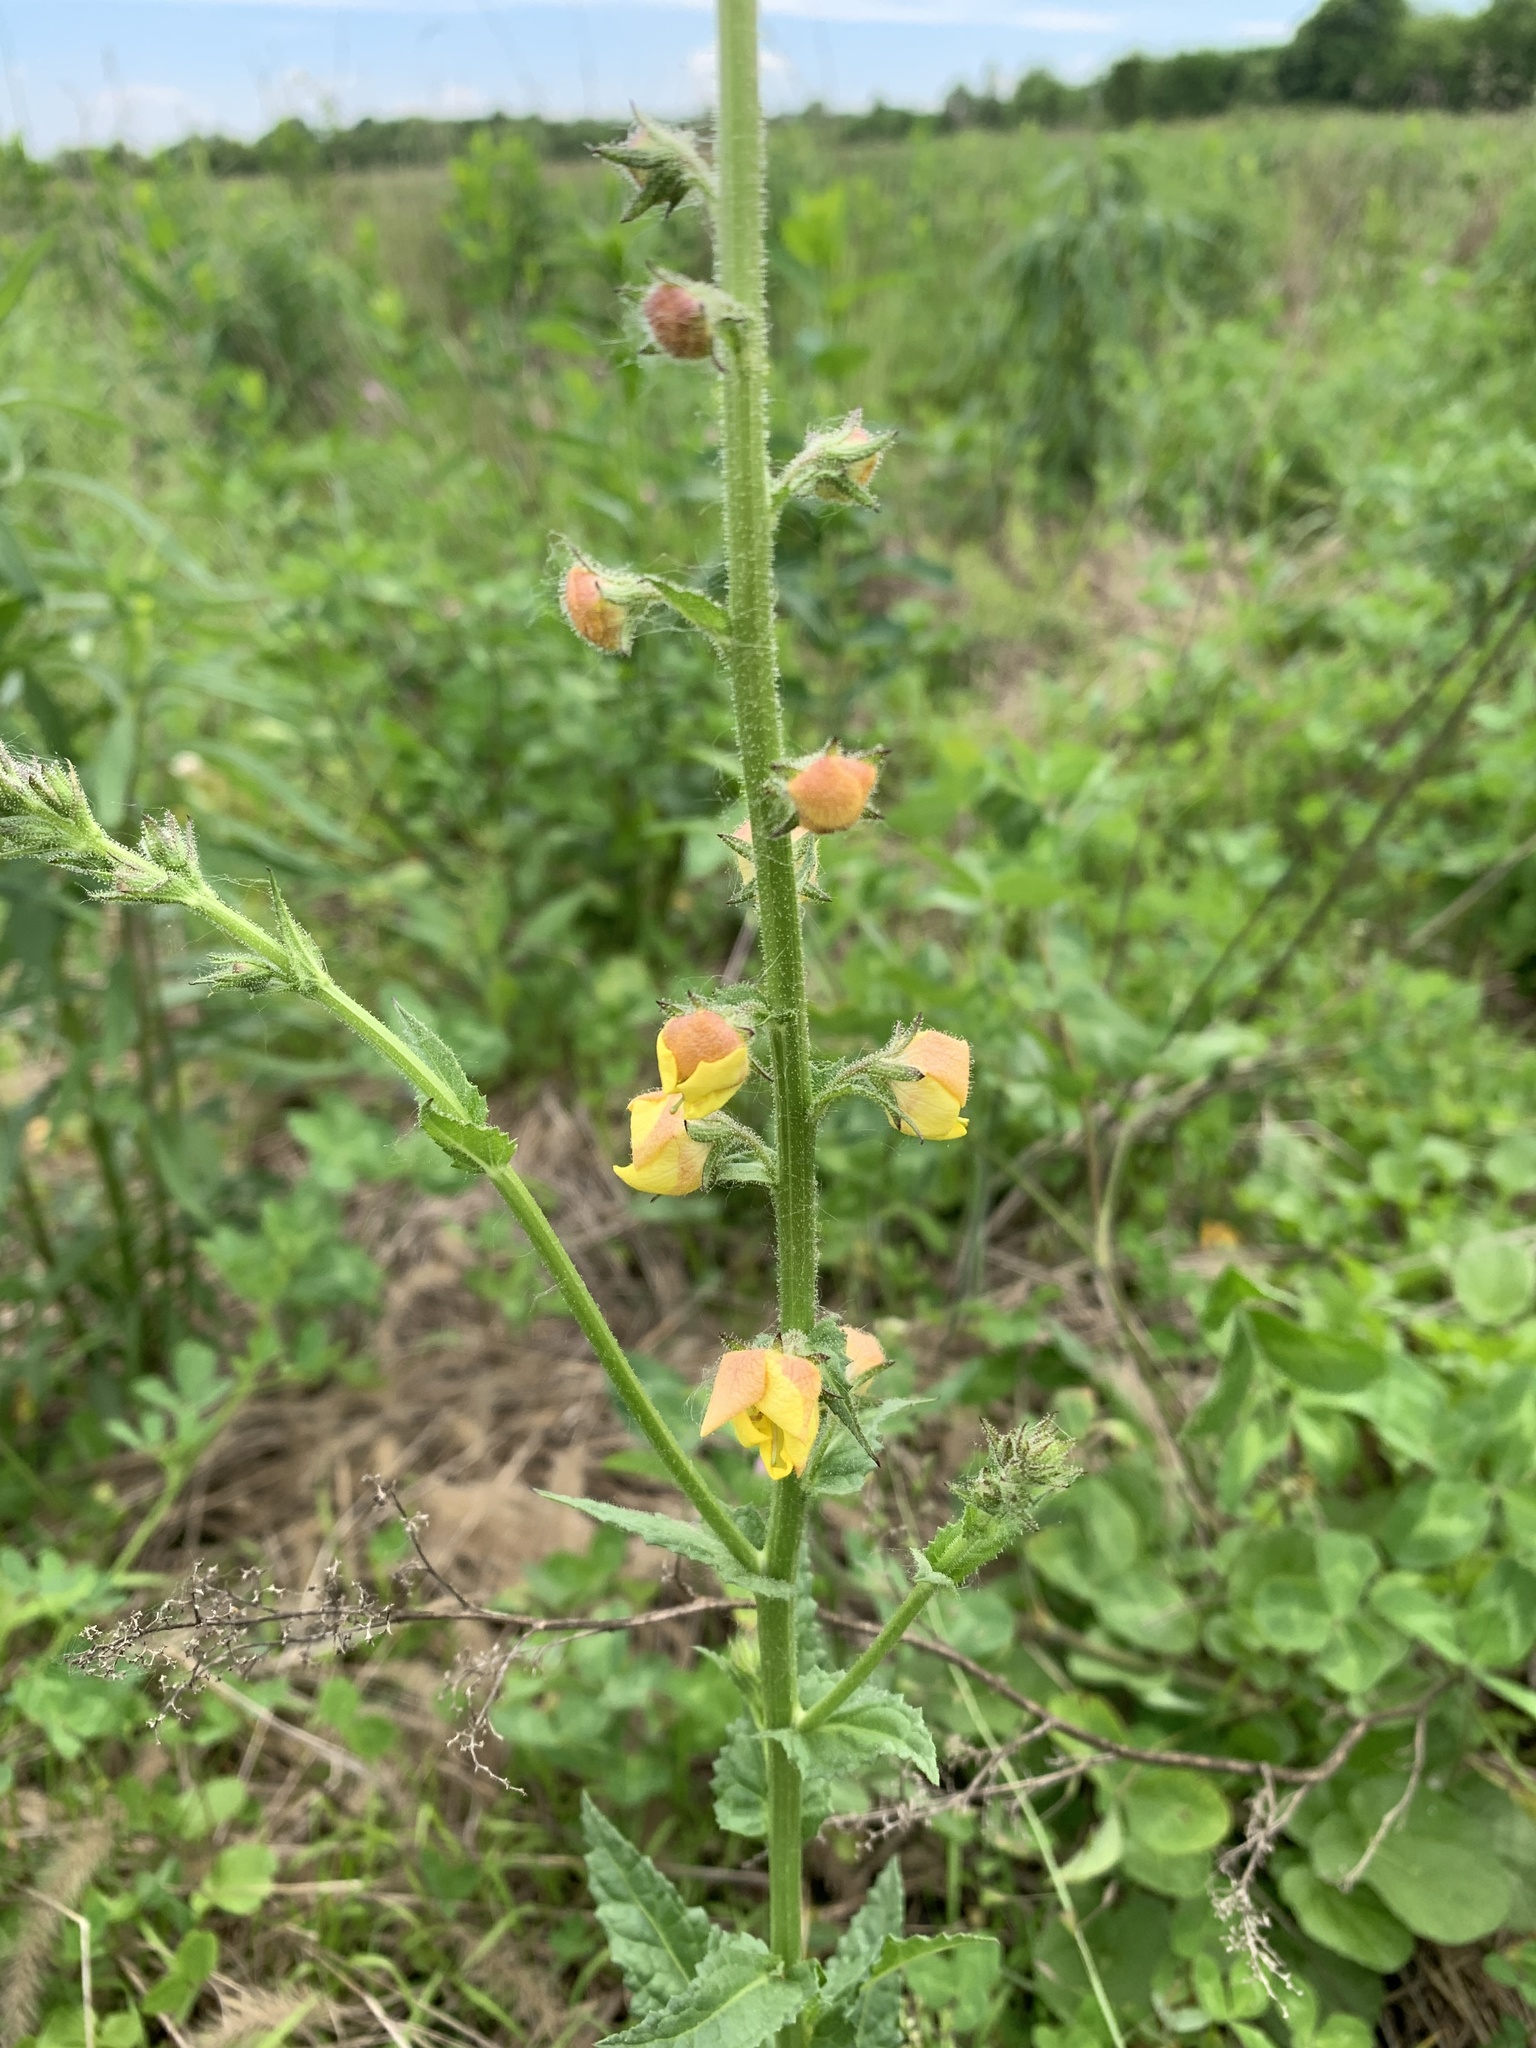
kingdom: Plantae
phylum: Tracheophyta
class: Magnoliopsida
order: Lamiales
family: Scrophulariaceae
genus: Verbascum
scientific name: Verbascum blattaria
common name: Moth mullein
